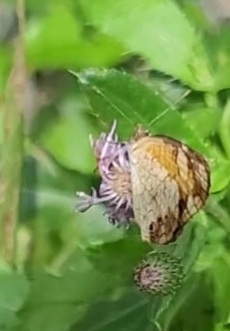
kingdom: Animalia
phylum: Arthropoda
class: Insecta
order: Lepidoptera
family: Nymphalidae
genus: Phyciodes
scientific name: Phyciodes tharos
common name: Pearl crescent
